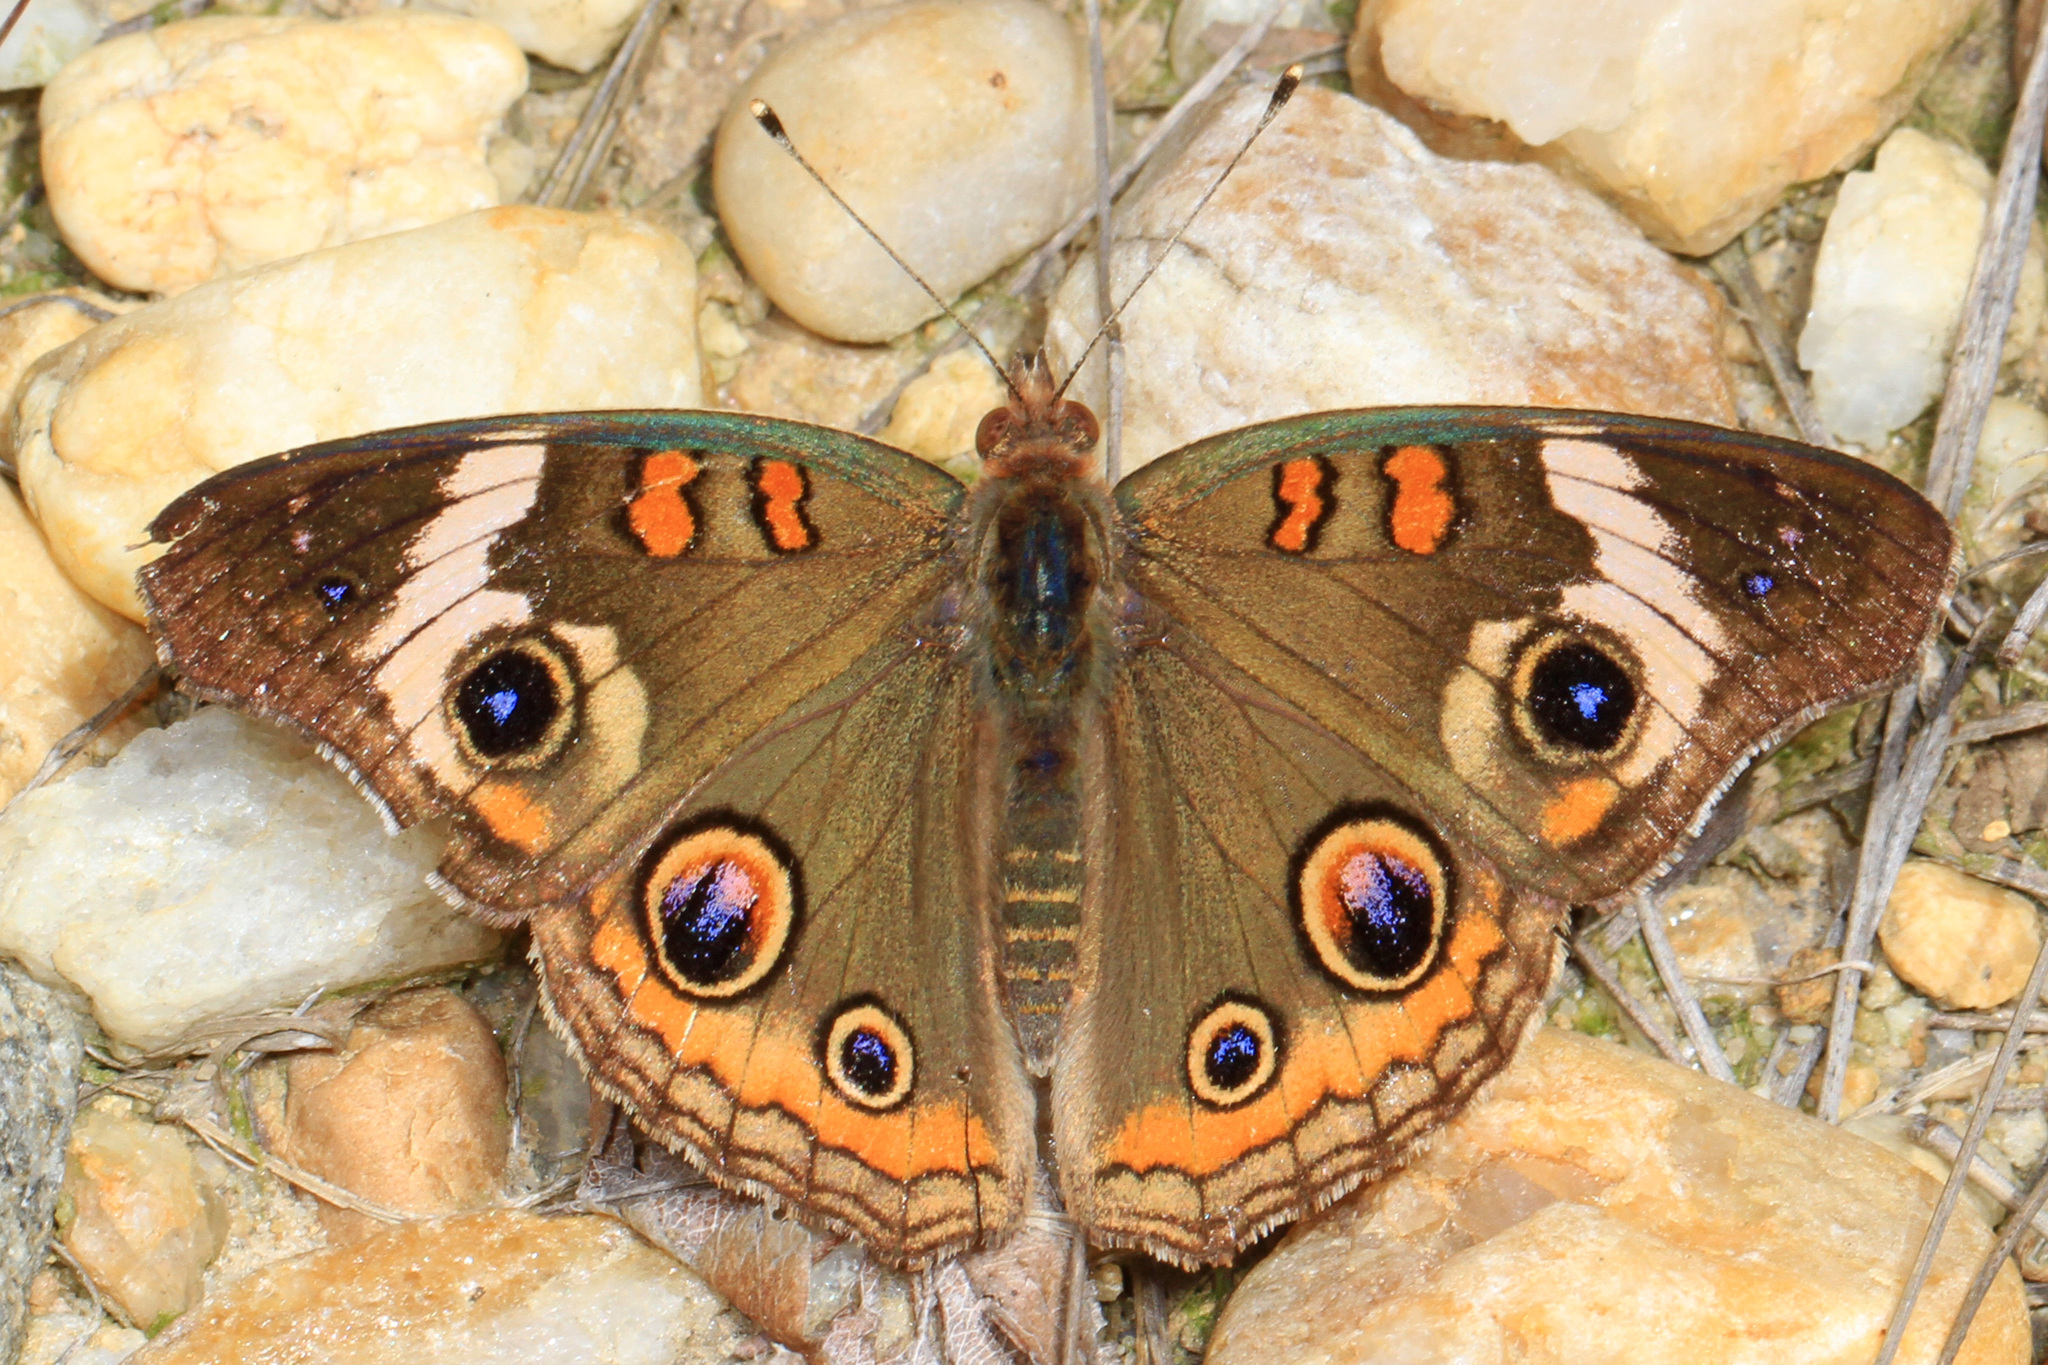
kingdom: Animalia
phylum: Arthropoda
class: Insecta
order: Lepidoptera
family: Nymphalidae
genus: Junonia
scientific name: Junonia coenia
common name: Common buckeye
